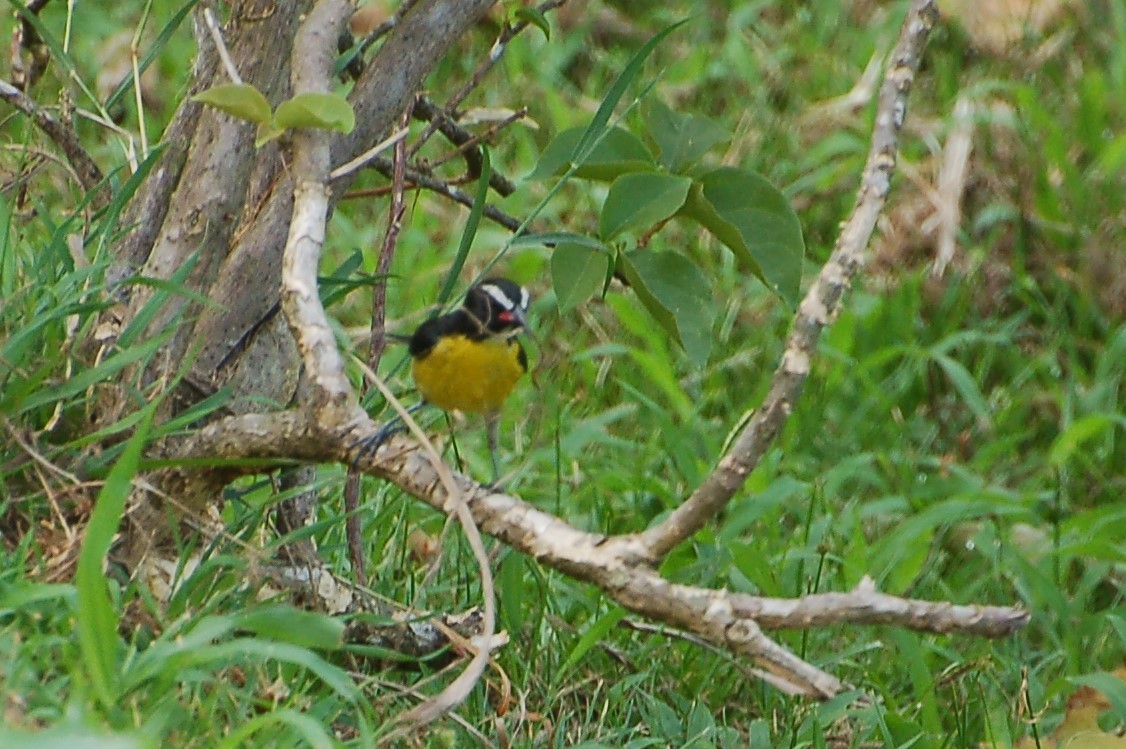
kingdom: Animalia
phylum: Chordata
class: Aves
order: Passeriformes
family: Thraupidae
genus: Coereba
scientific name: Coereba flaveola
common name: Bananaquit
